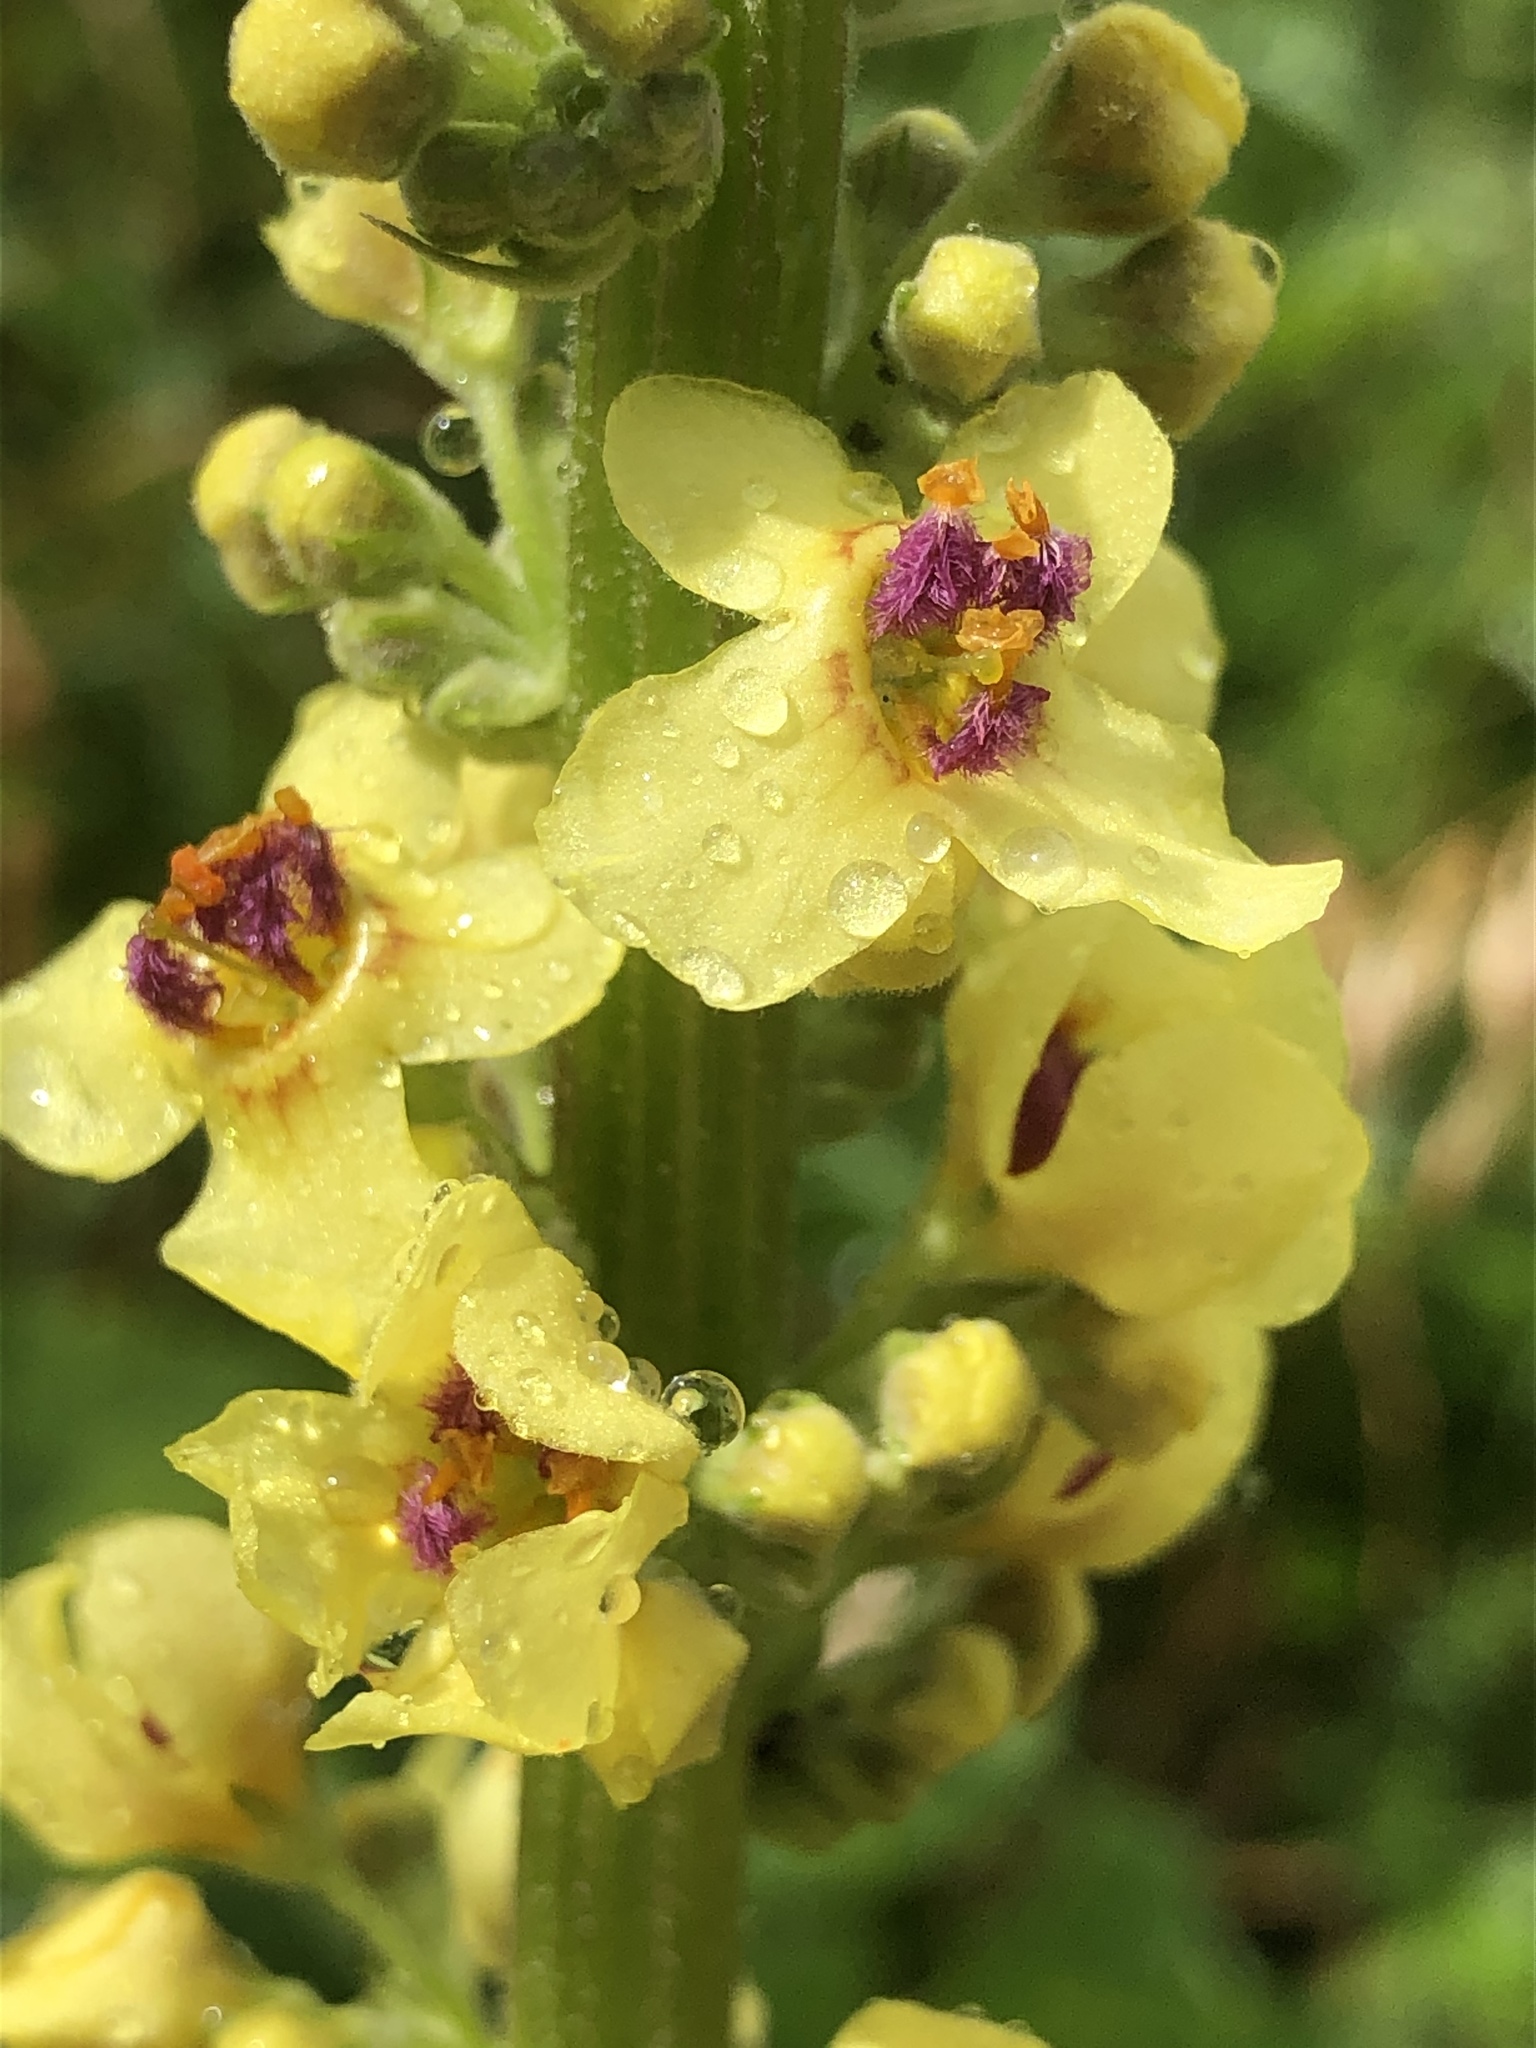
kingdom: Plantae
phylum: Tracheophyta
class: Magnoliopsida
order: Lamiales
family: Scrophulariaceae
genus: Verbascum
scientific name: Verbascum nigrum
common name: Dark mullein
